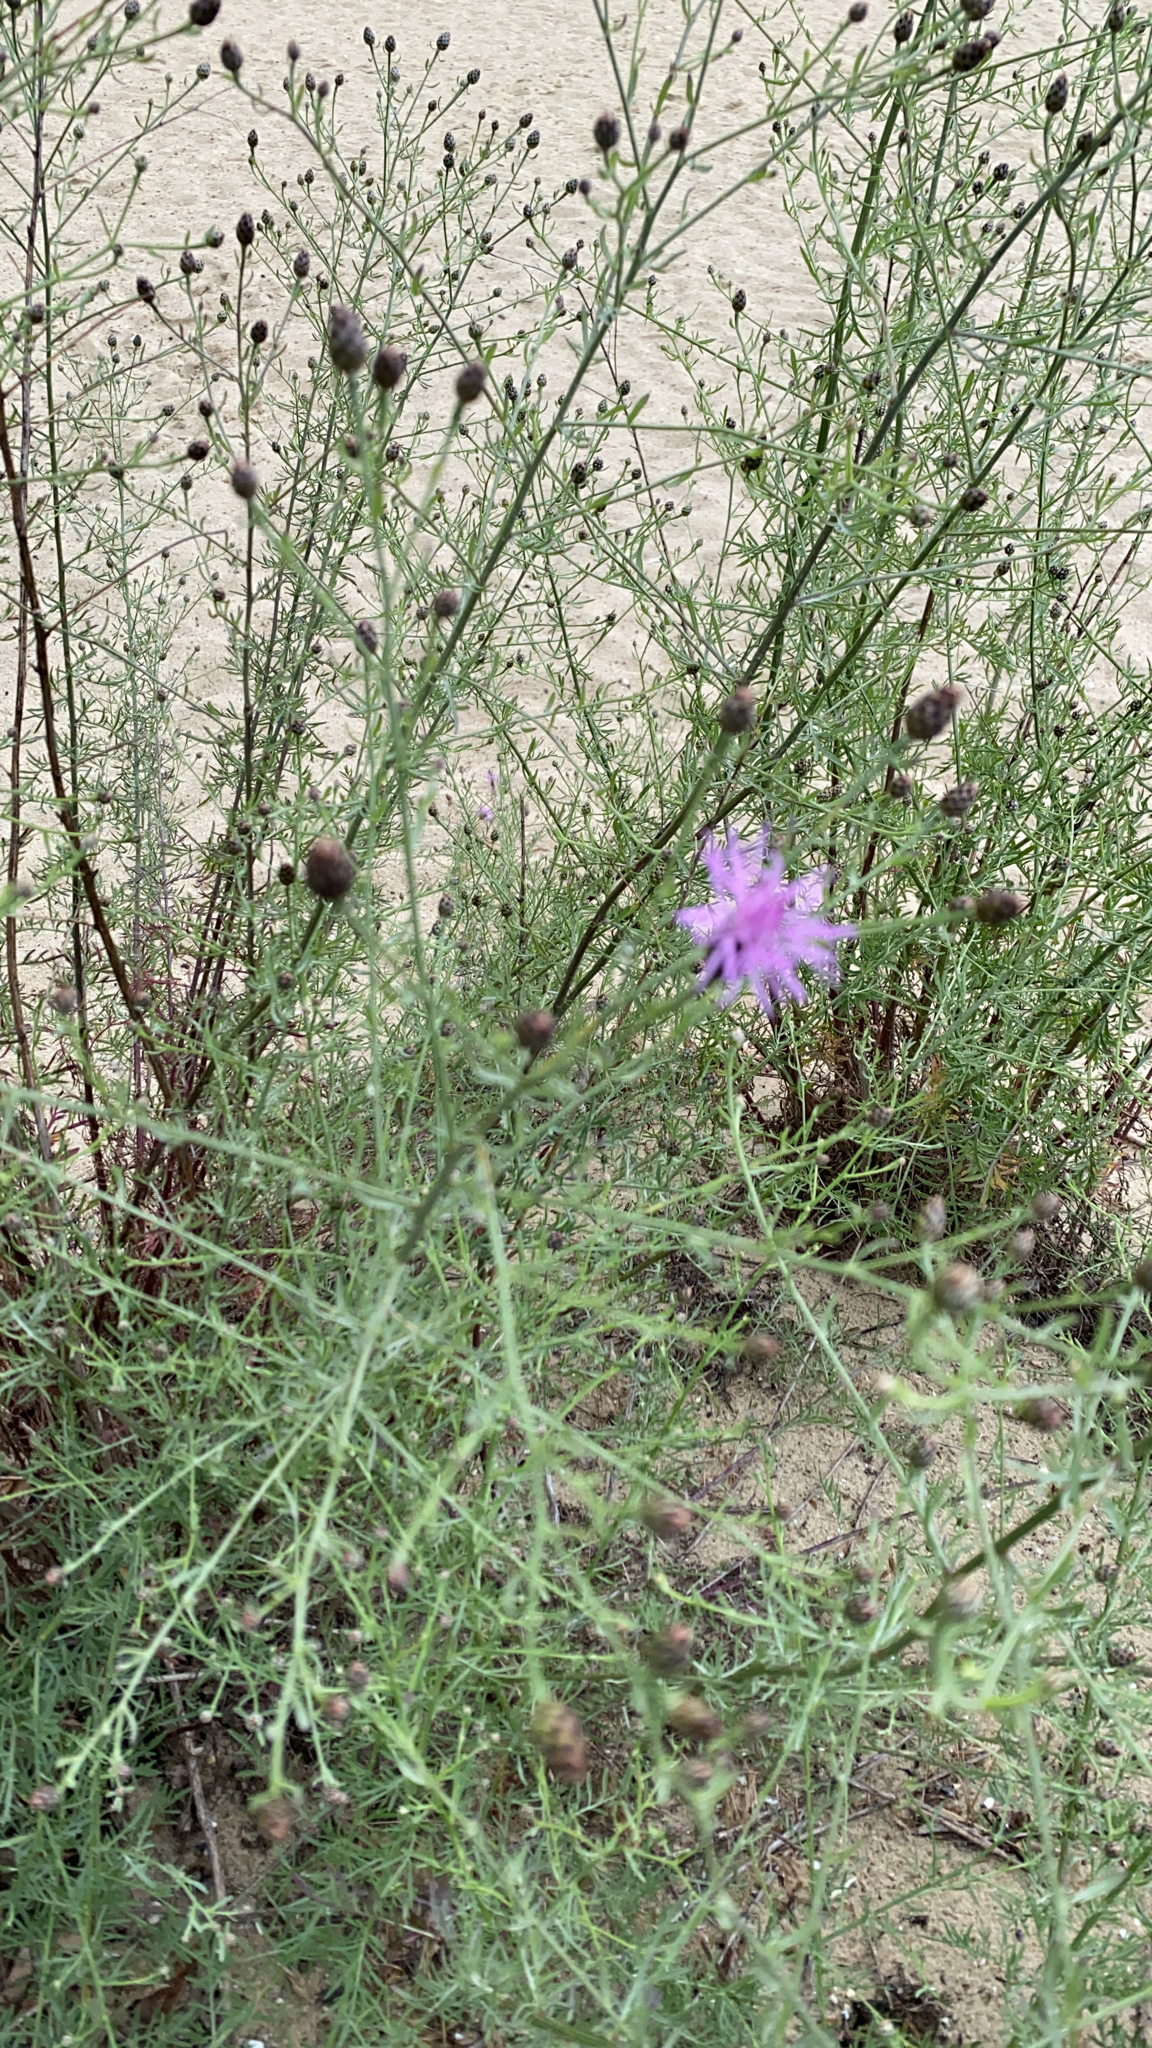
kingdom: Plantae
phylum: Tracheophyta
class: Magnoliopsida
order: Asterales
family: Asteraceae
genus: Centaurea
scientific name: Centaurea stoebe
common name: Spotted knapweed
